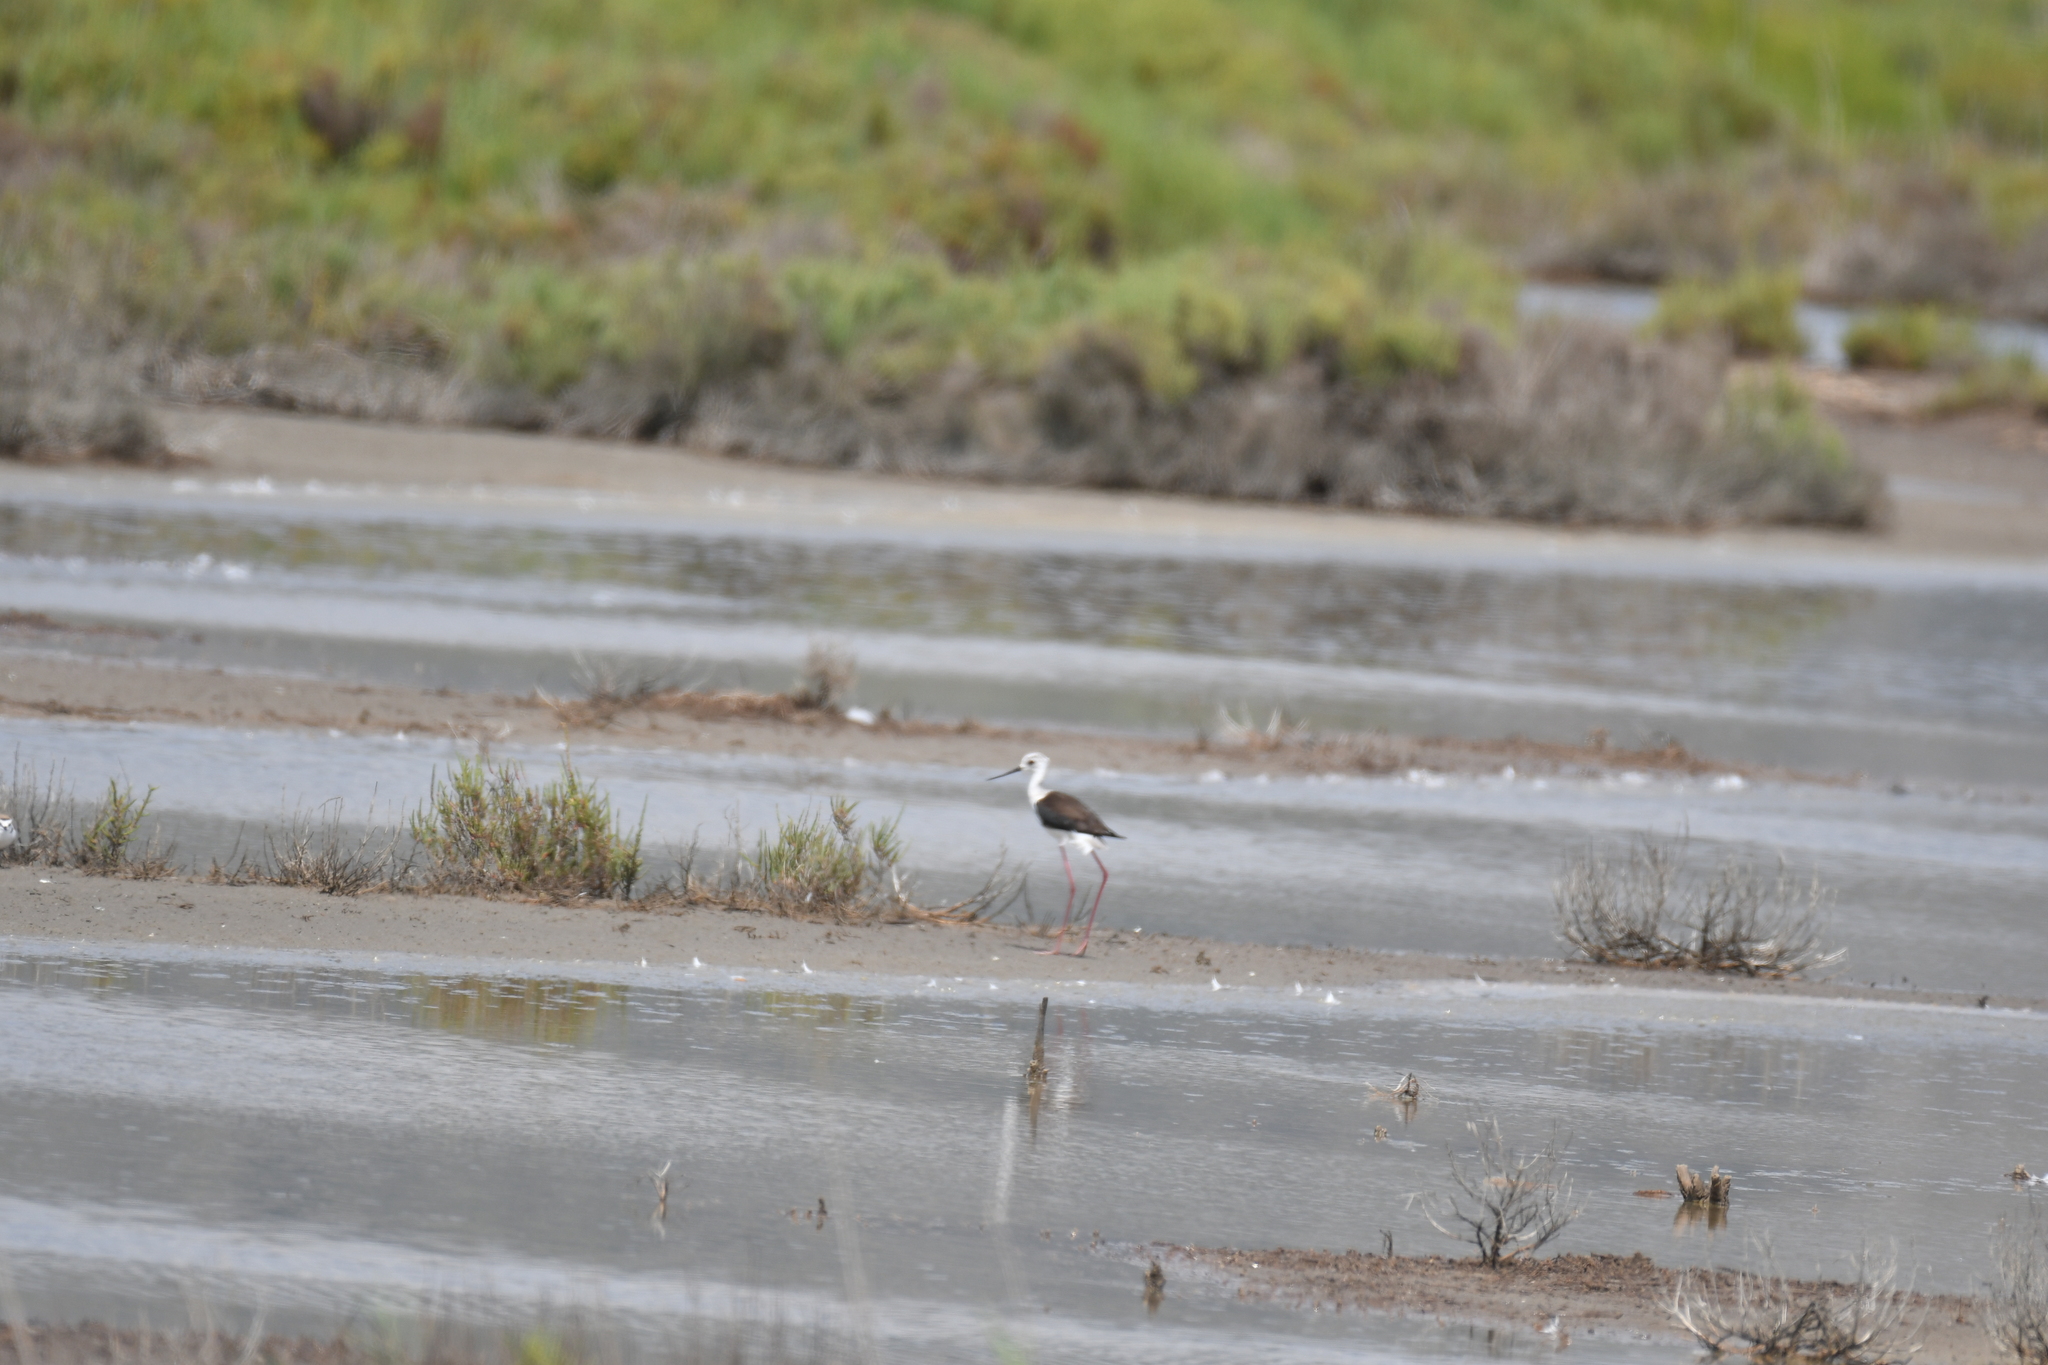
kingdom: Animalia
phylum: Chordata
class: Aves
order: Charadriiformes
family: Recurvirostridae
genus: Himantopus
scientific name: Himantopus himantopus
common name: Black-winged stilt
